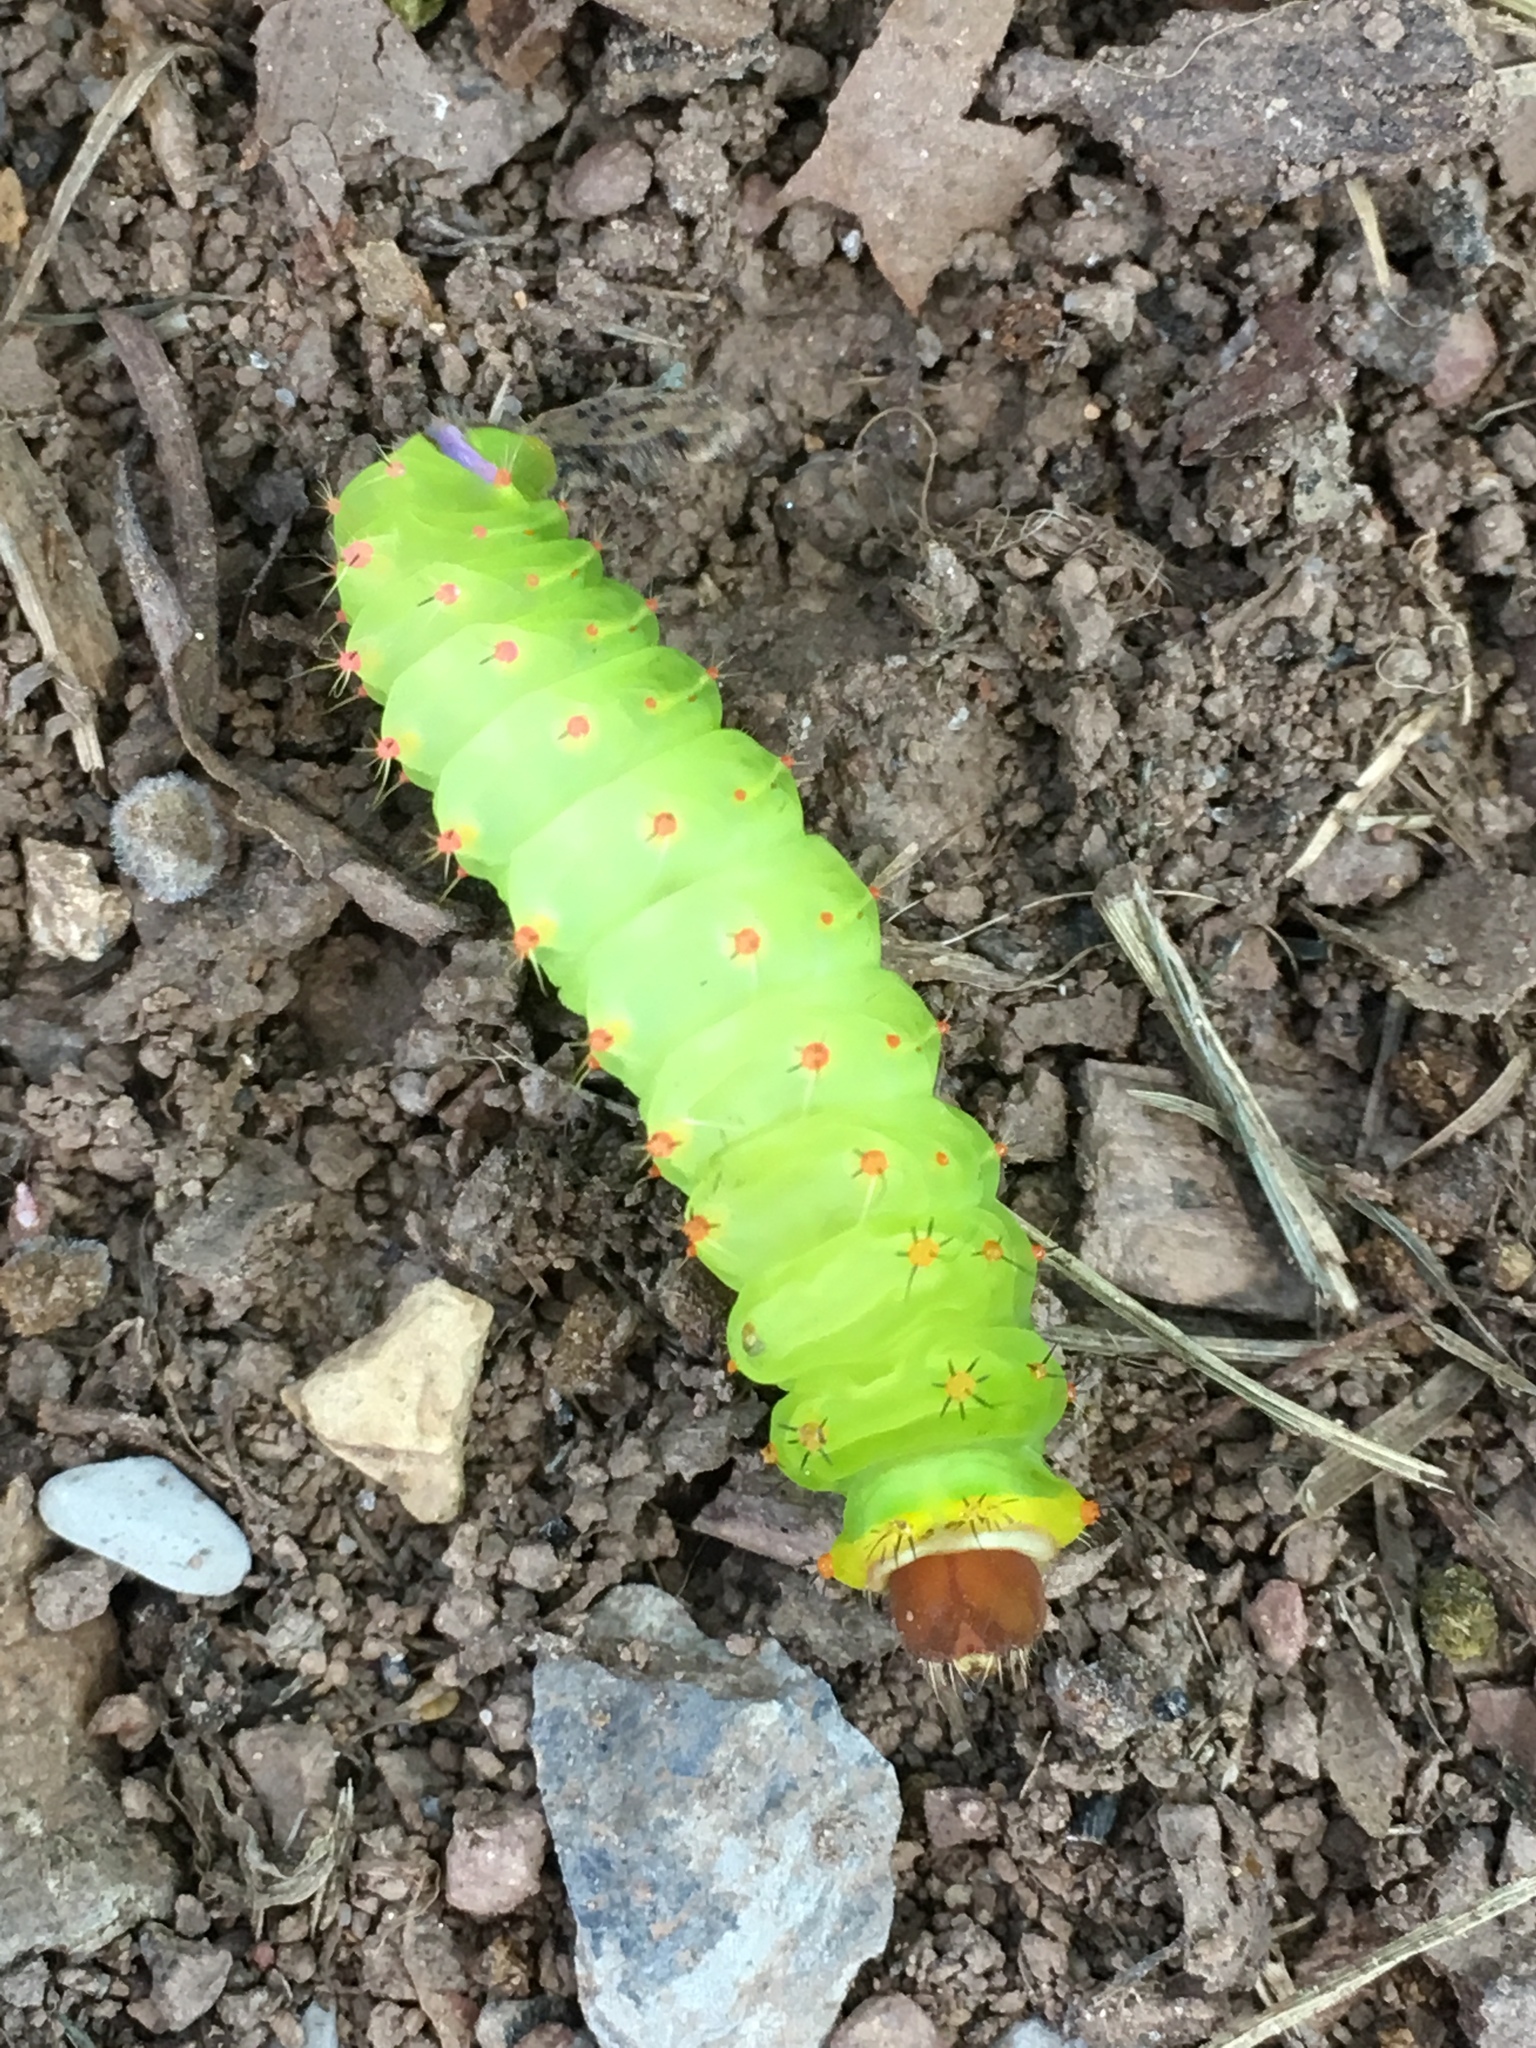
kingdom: Animalia
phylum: Arthropoda
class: Insecta
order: Lepidoptera
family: Saturniidae
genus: Antheraea
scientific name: Antheraea polyphemus
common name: Polyphemus moth
